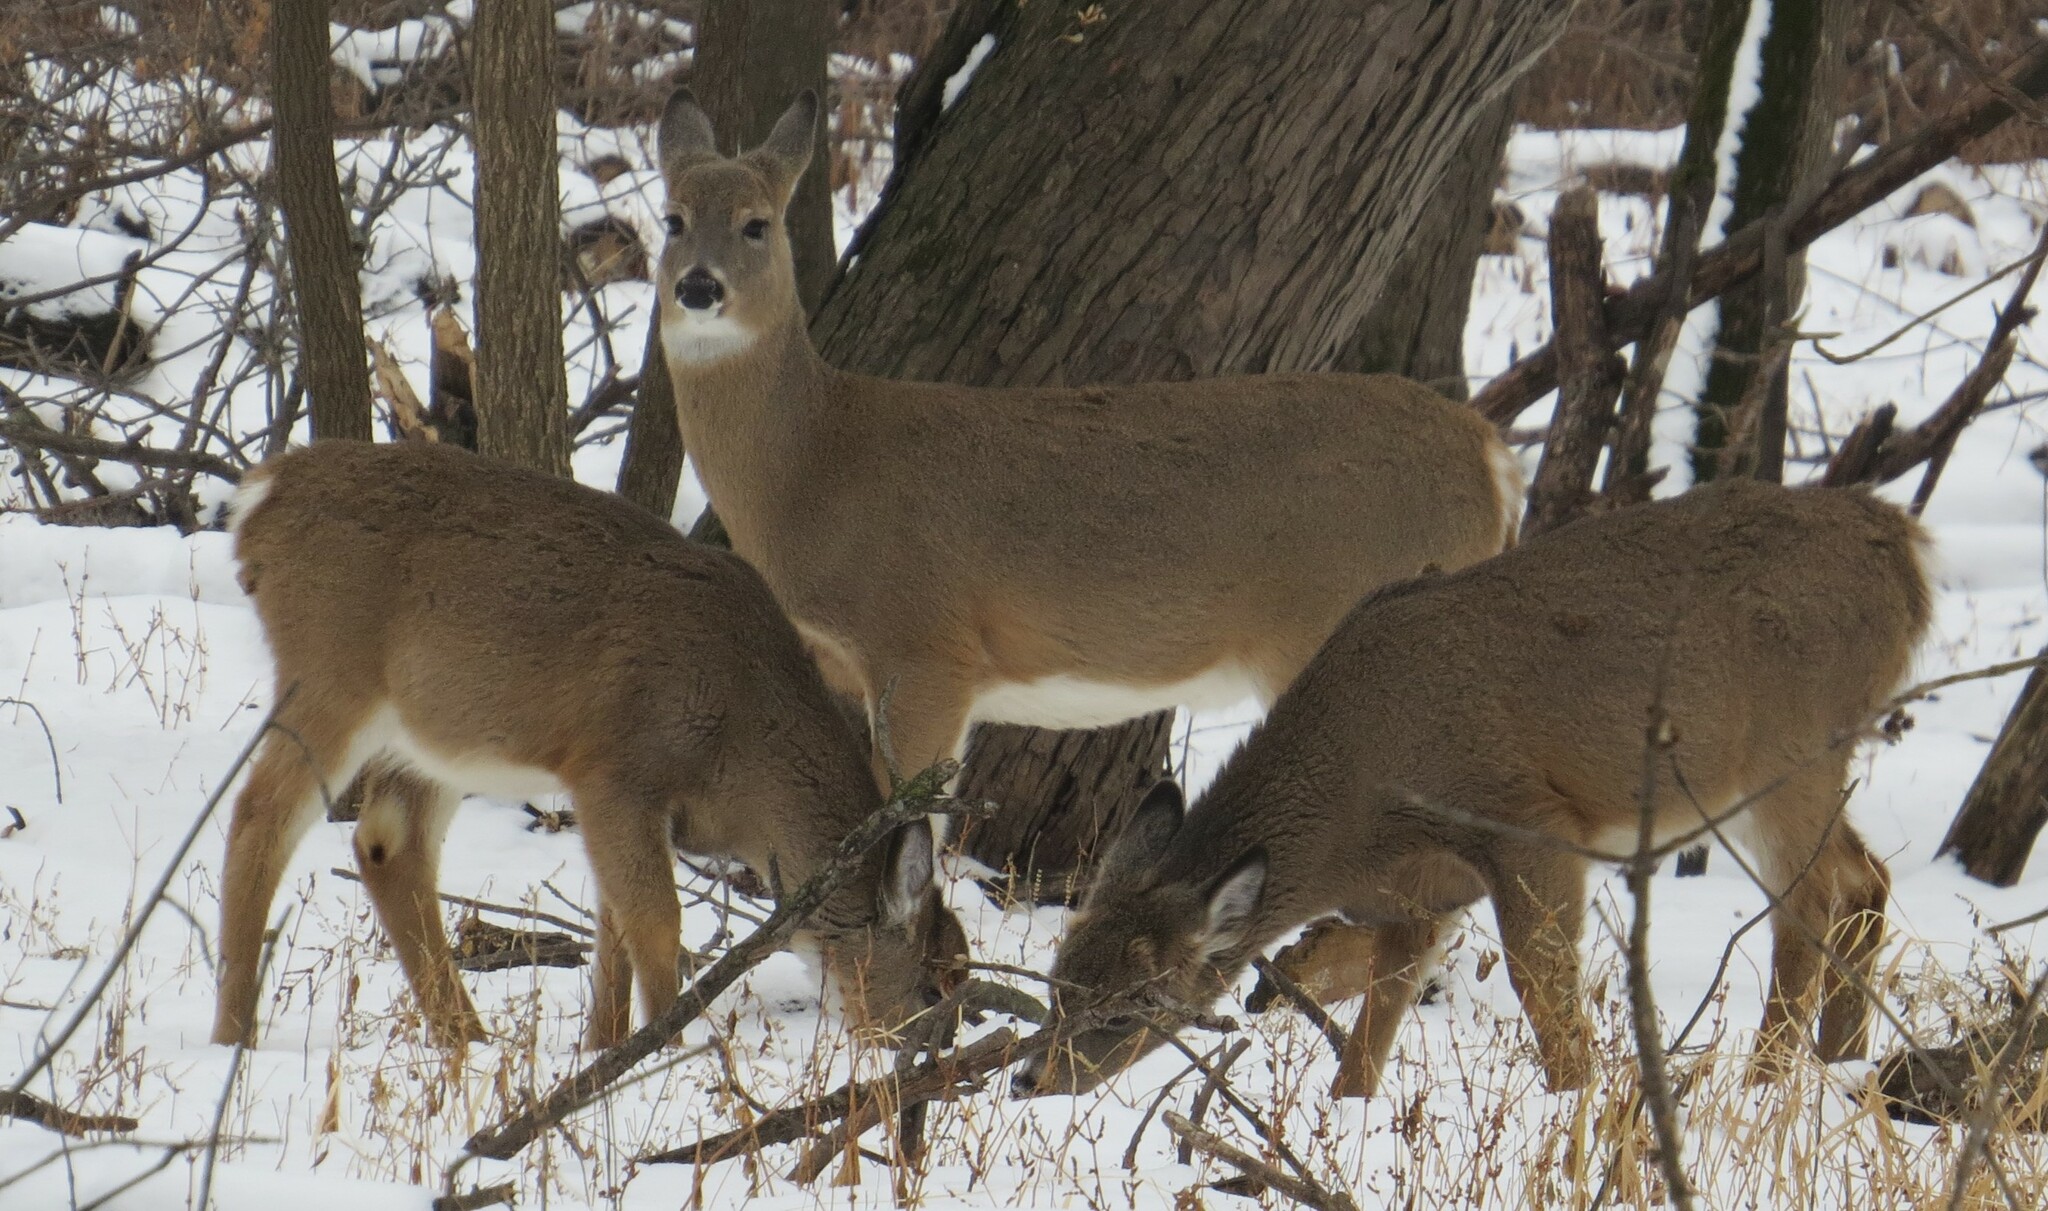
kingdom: Animalia
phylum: Chordata
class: Mammalia
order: Artiodactyla
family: Cervidae
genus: Odocoileus
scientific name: Odocoileus virginianus
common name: White-tailed deer
